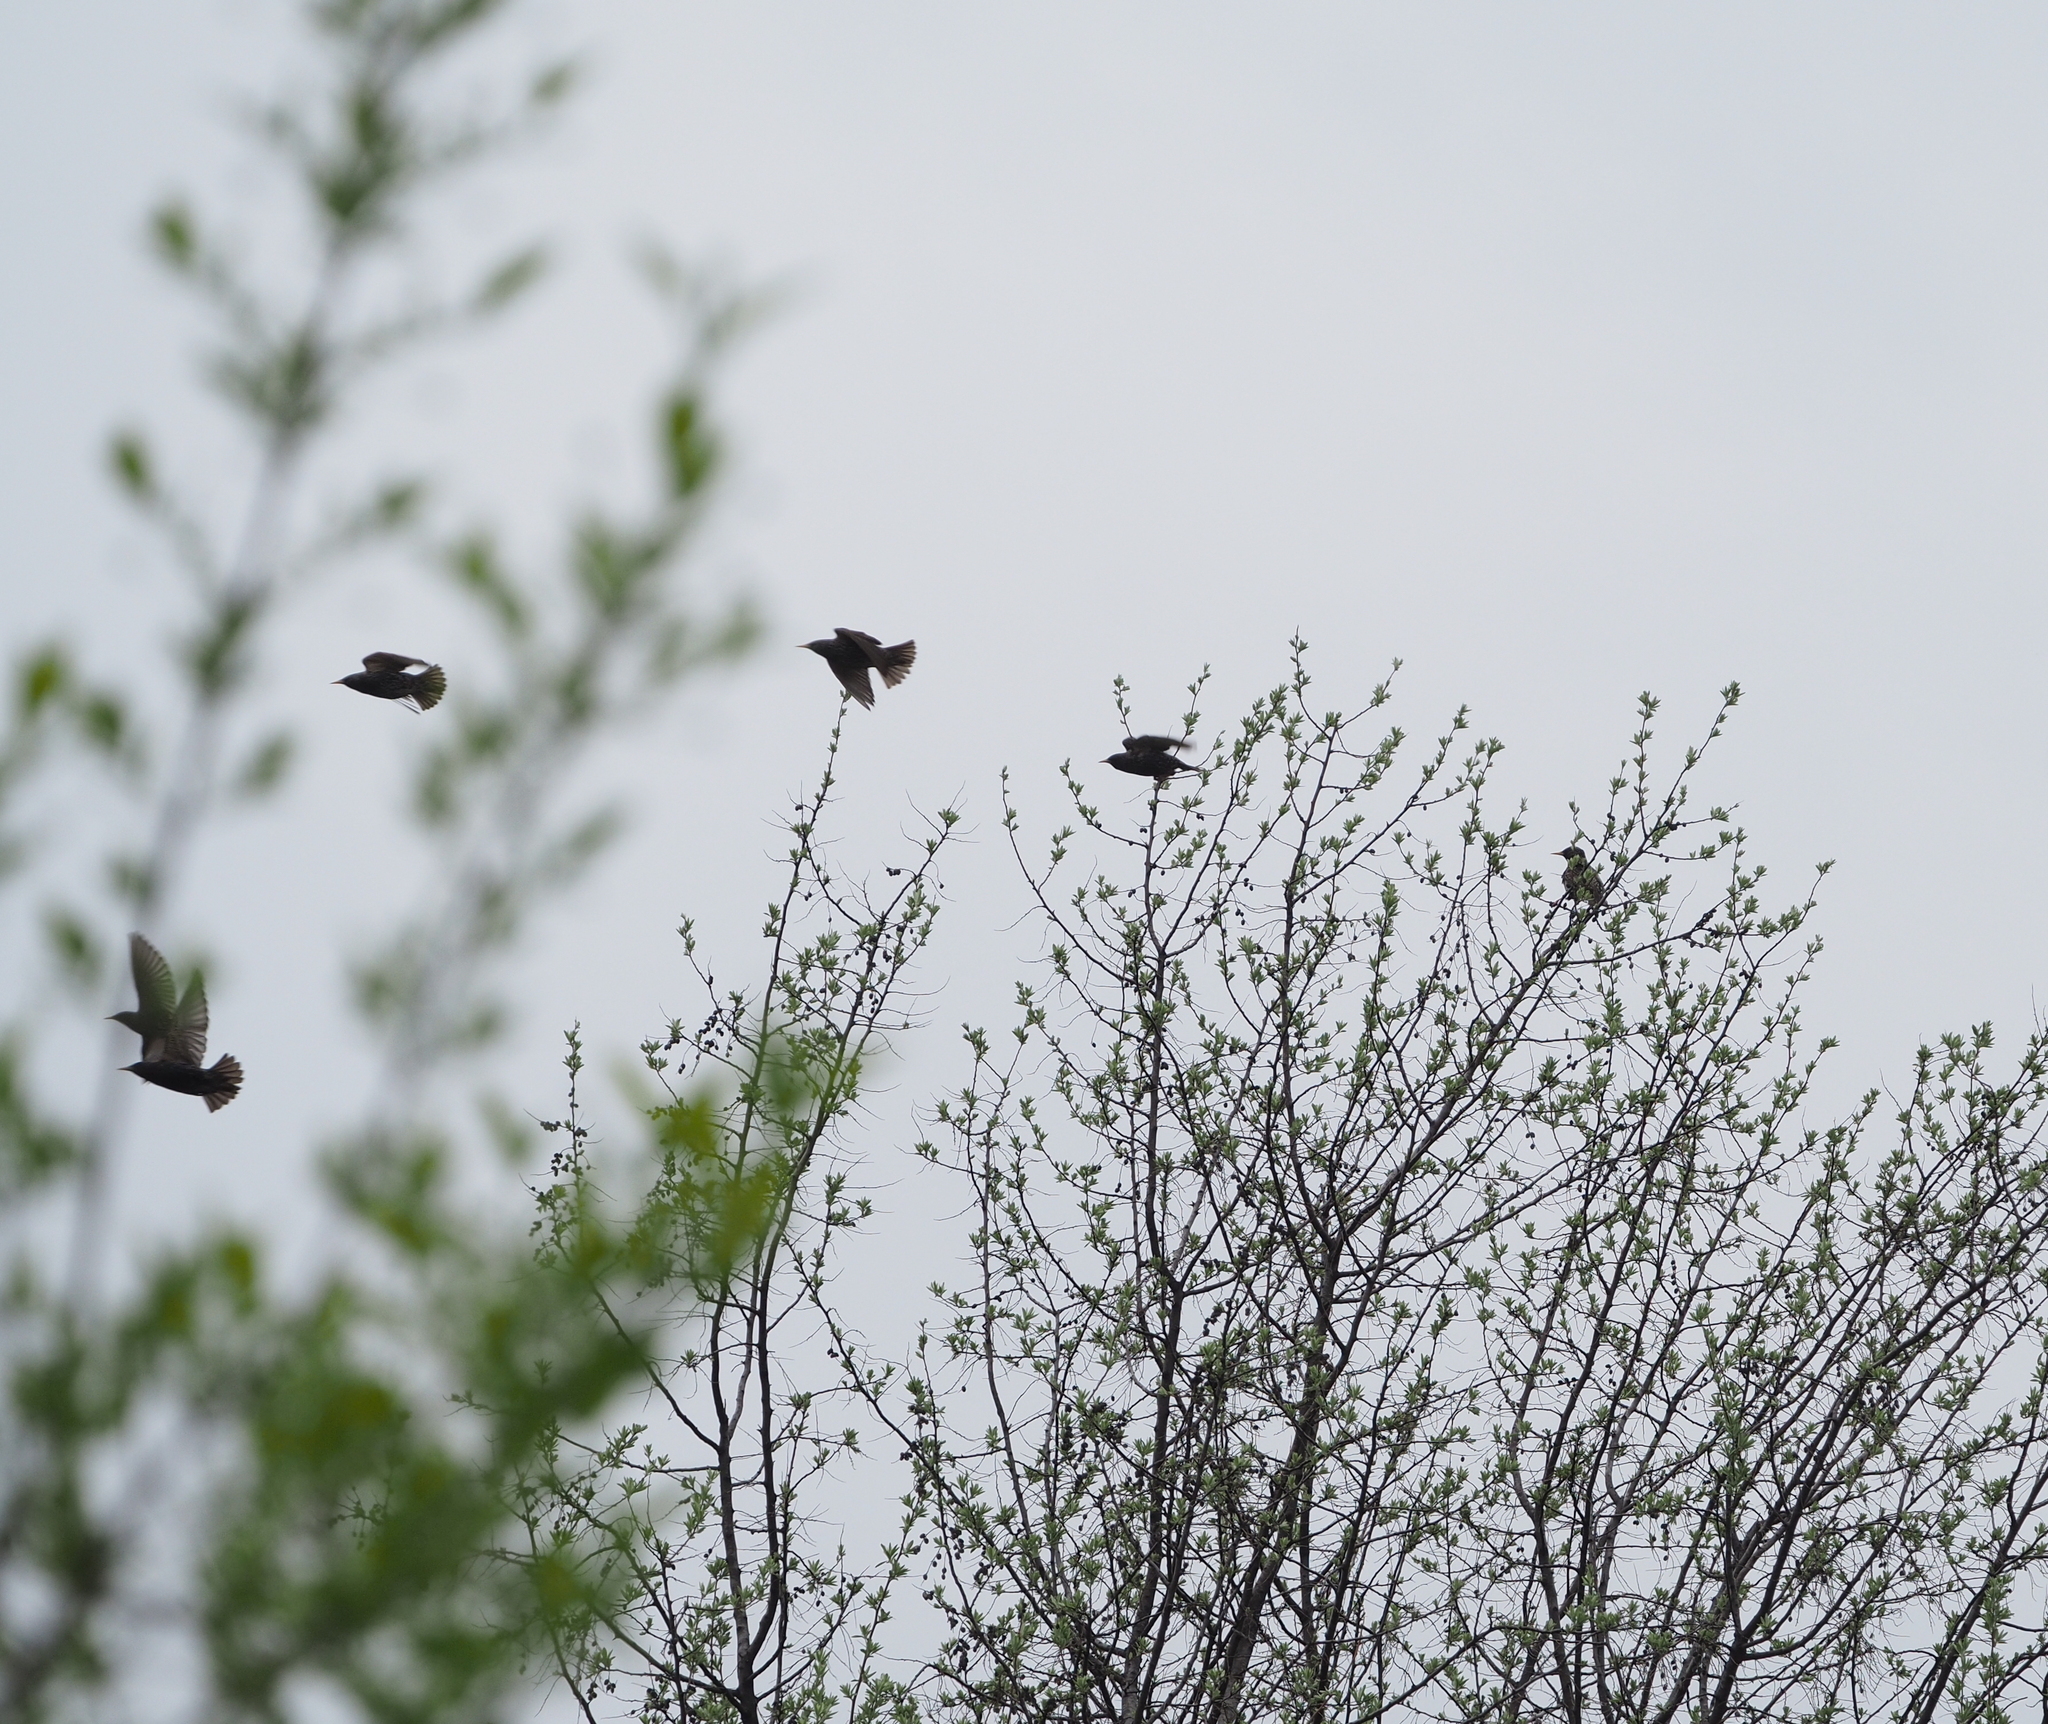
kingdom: Animalia
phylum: Chordata
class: Aves
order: Passeriformes
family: Sturnidae
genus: Sturnus
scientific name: Sturnus vulgaris
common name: Common starling
